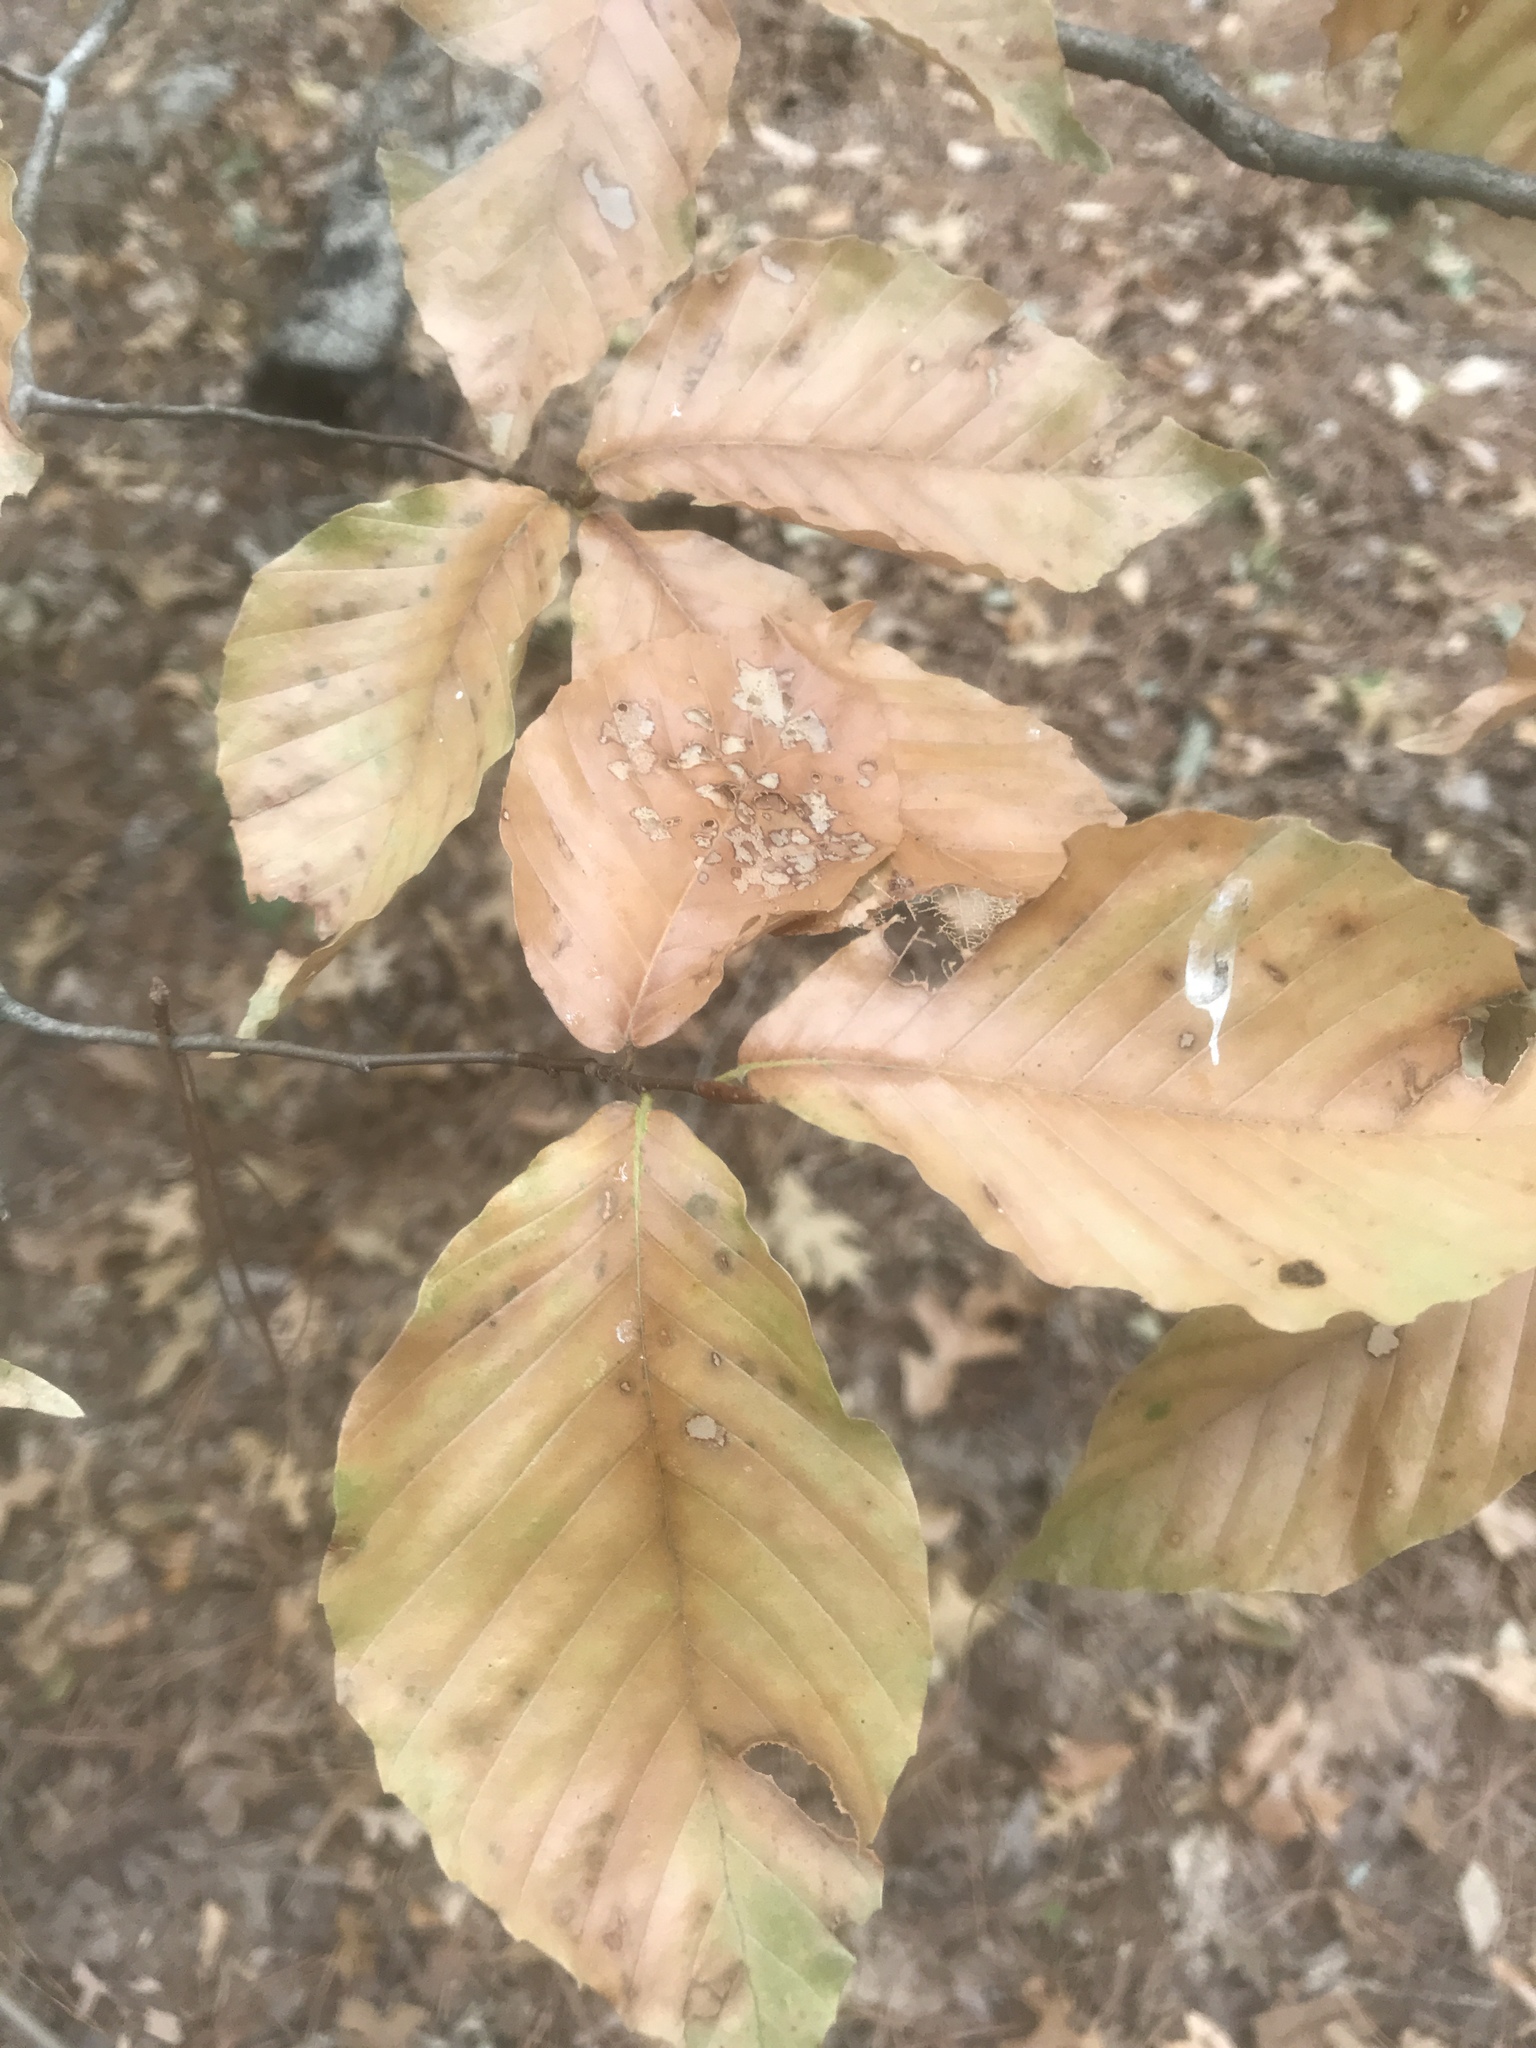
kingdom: Plantae
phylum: Tracheophyta
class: Magnoliopsida
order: Fagales
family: Fagaceae
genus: Fagus
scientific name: Fagus grandifolia
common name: American beech
